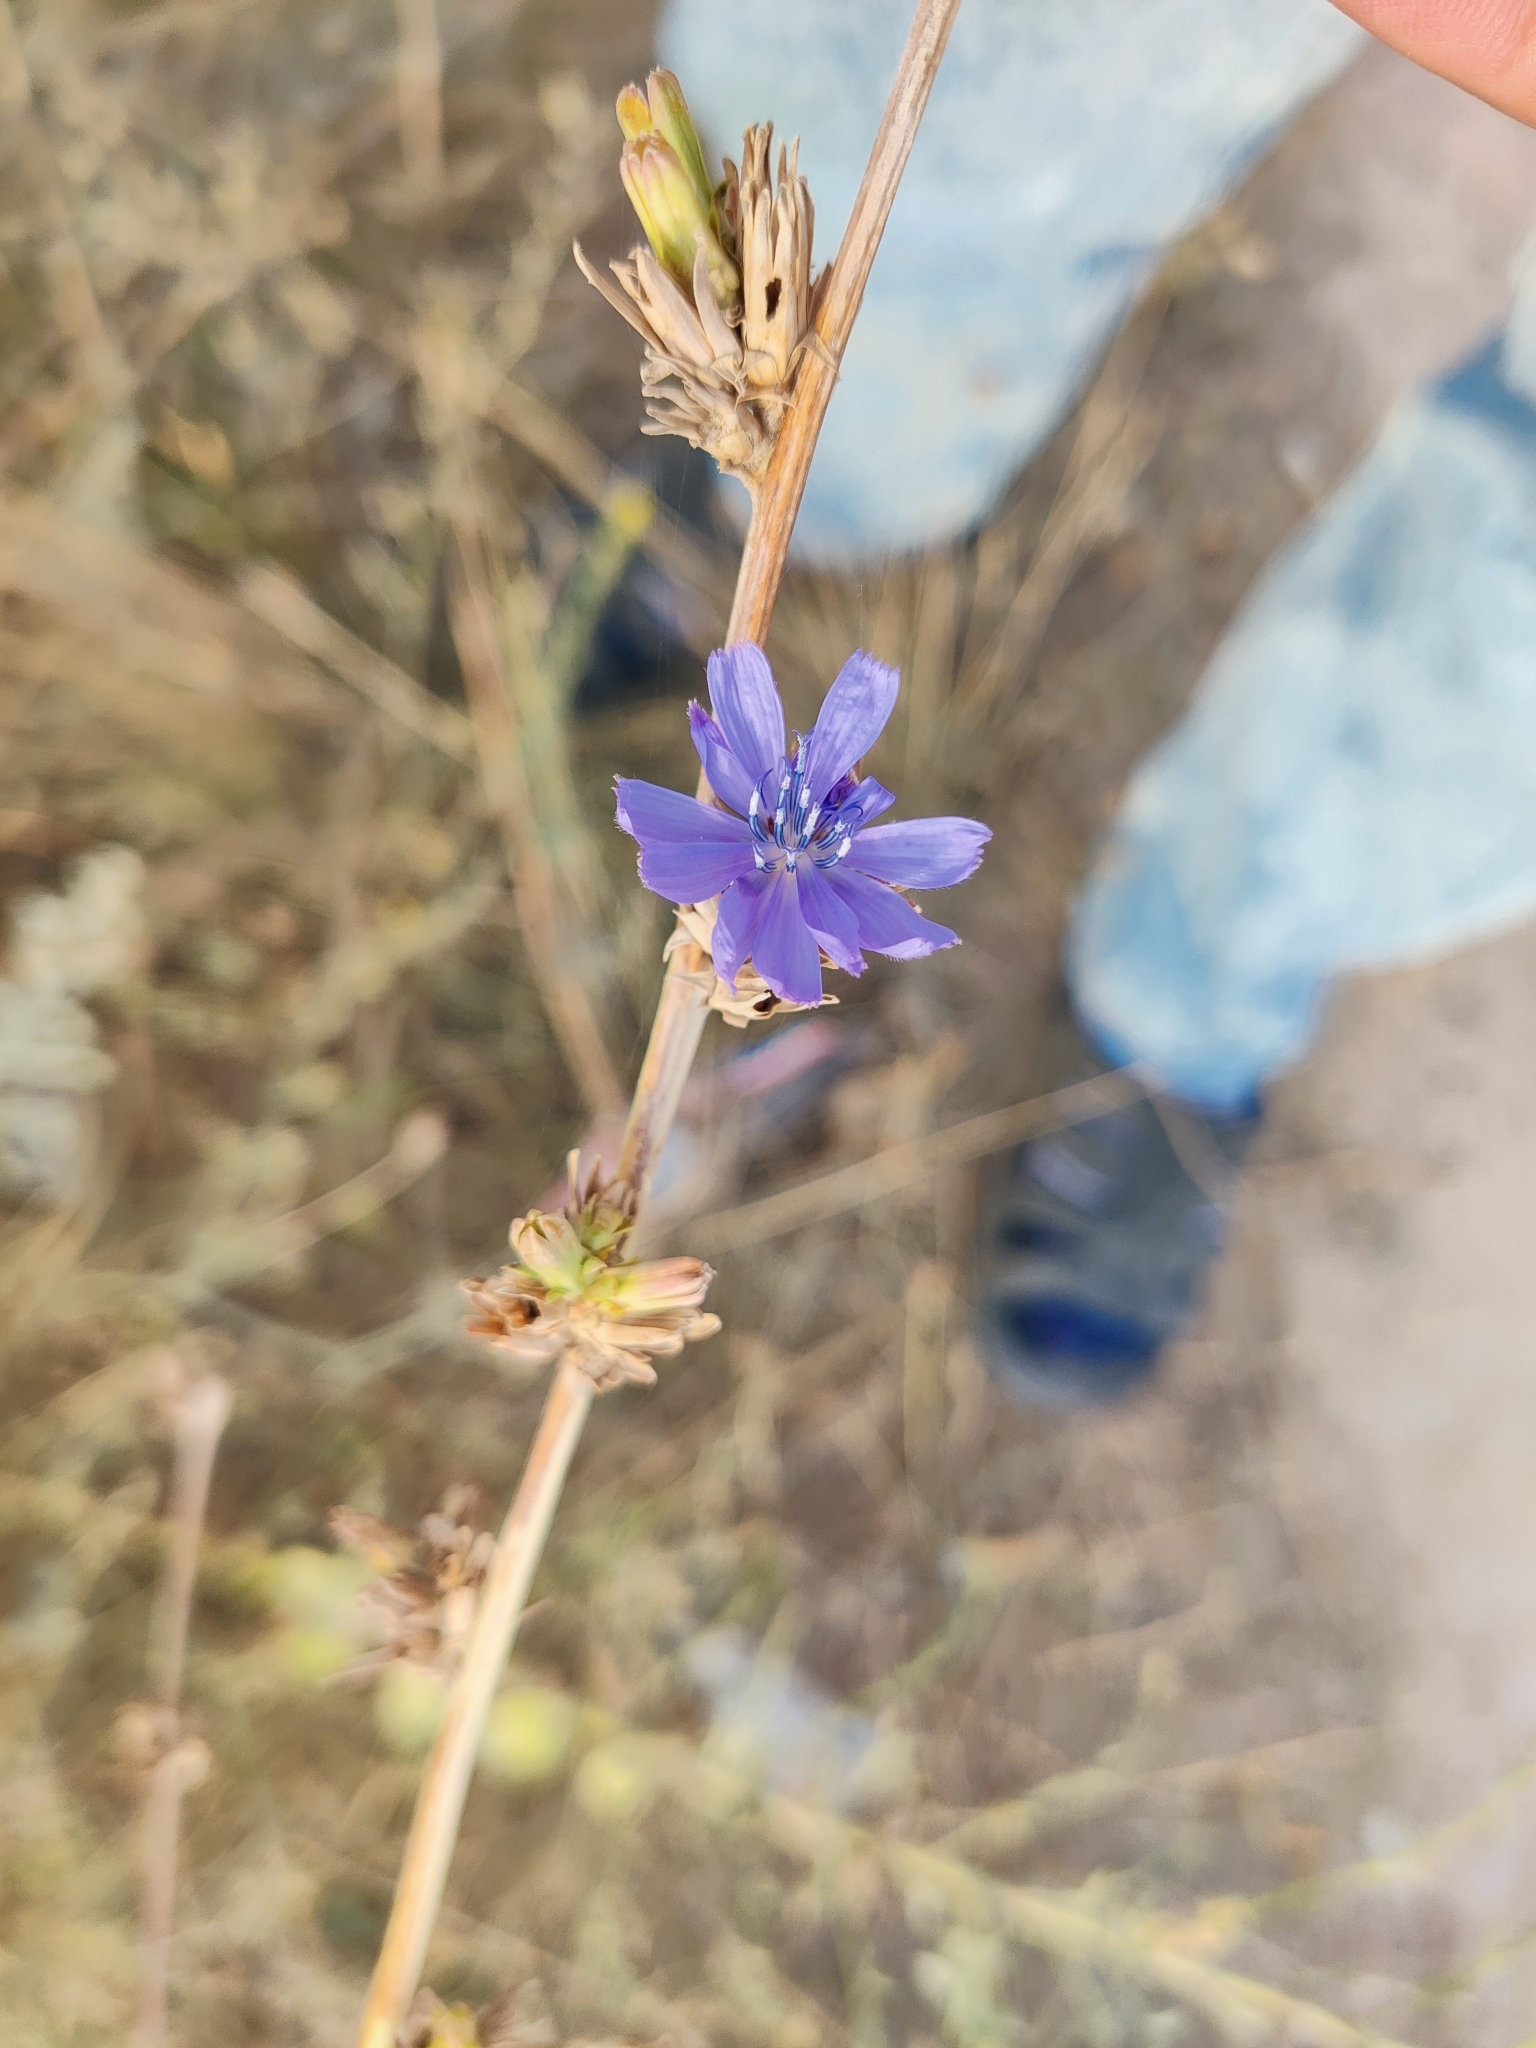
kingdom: Plantae
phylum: Tracheophyta
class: Magnoliopsida
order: Asterales
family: Asteraceae
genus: Cichorium
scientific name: Cichorium intybus
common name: Chicory
